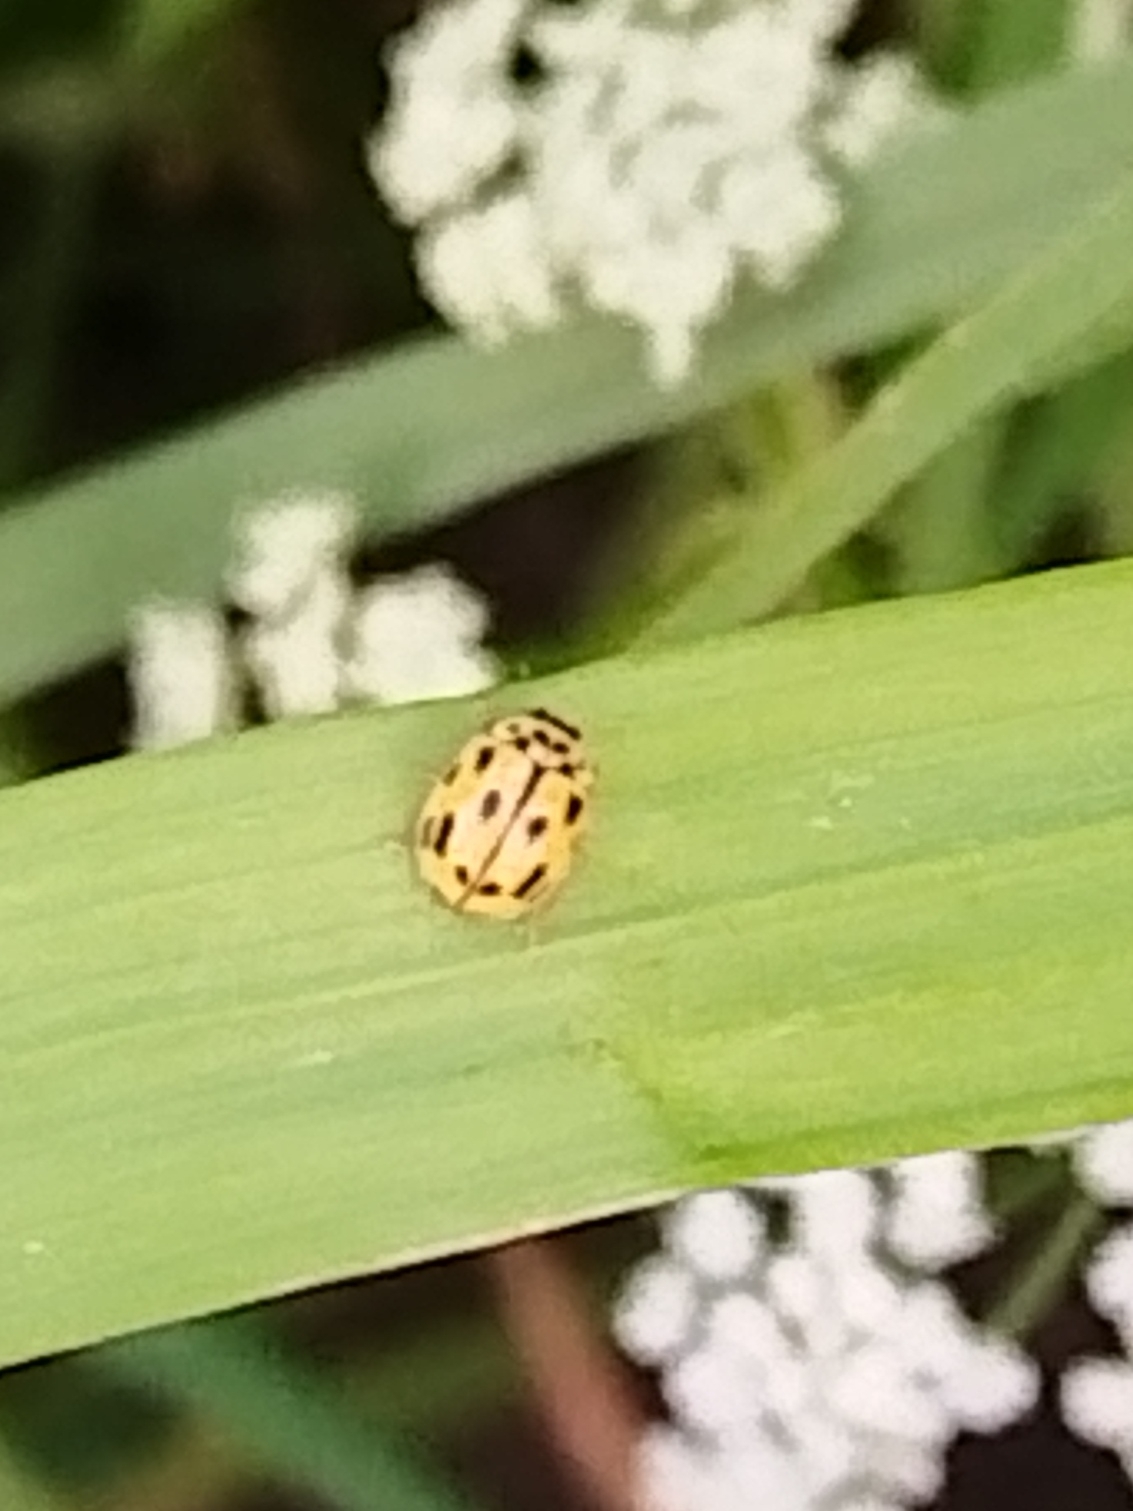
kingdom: Animalia
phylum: Arthropoda
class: Insecta
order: Coleoptera
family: Coccinellidae
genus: Propylaea
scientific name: Propylaea quatuordecimpunctata
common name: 14-spotted ladybird beetle
